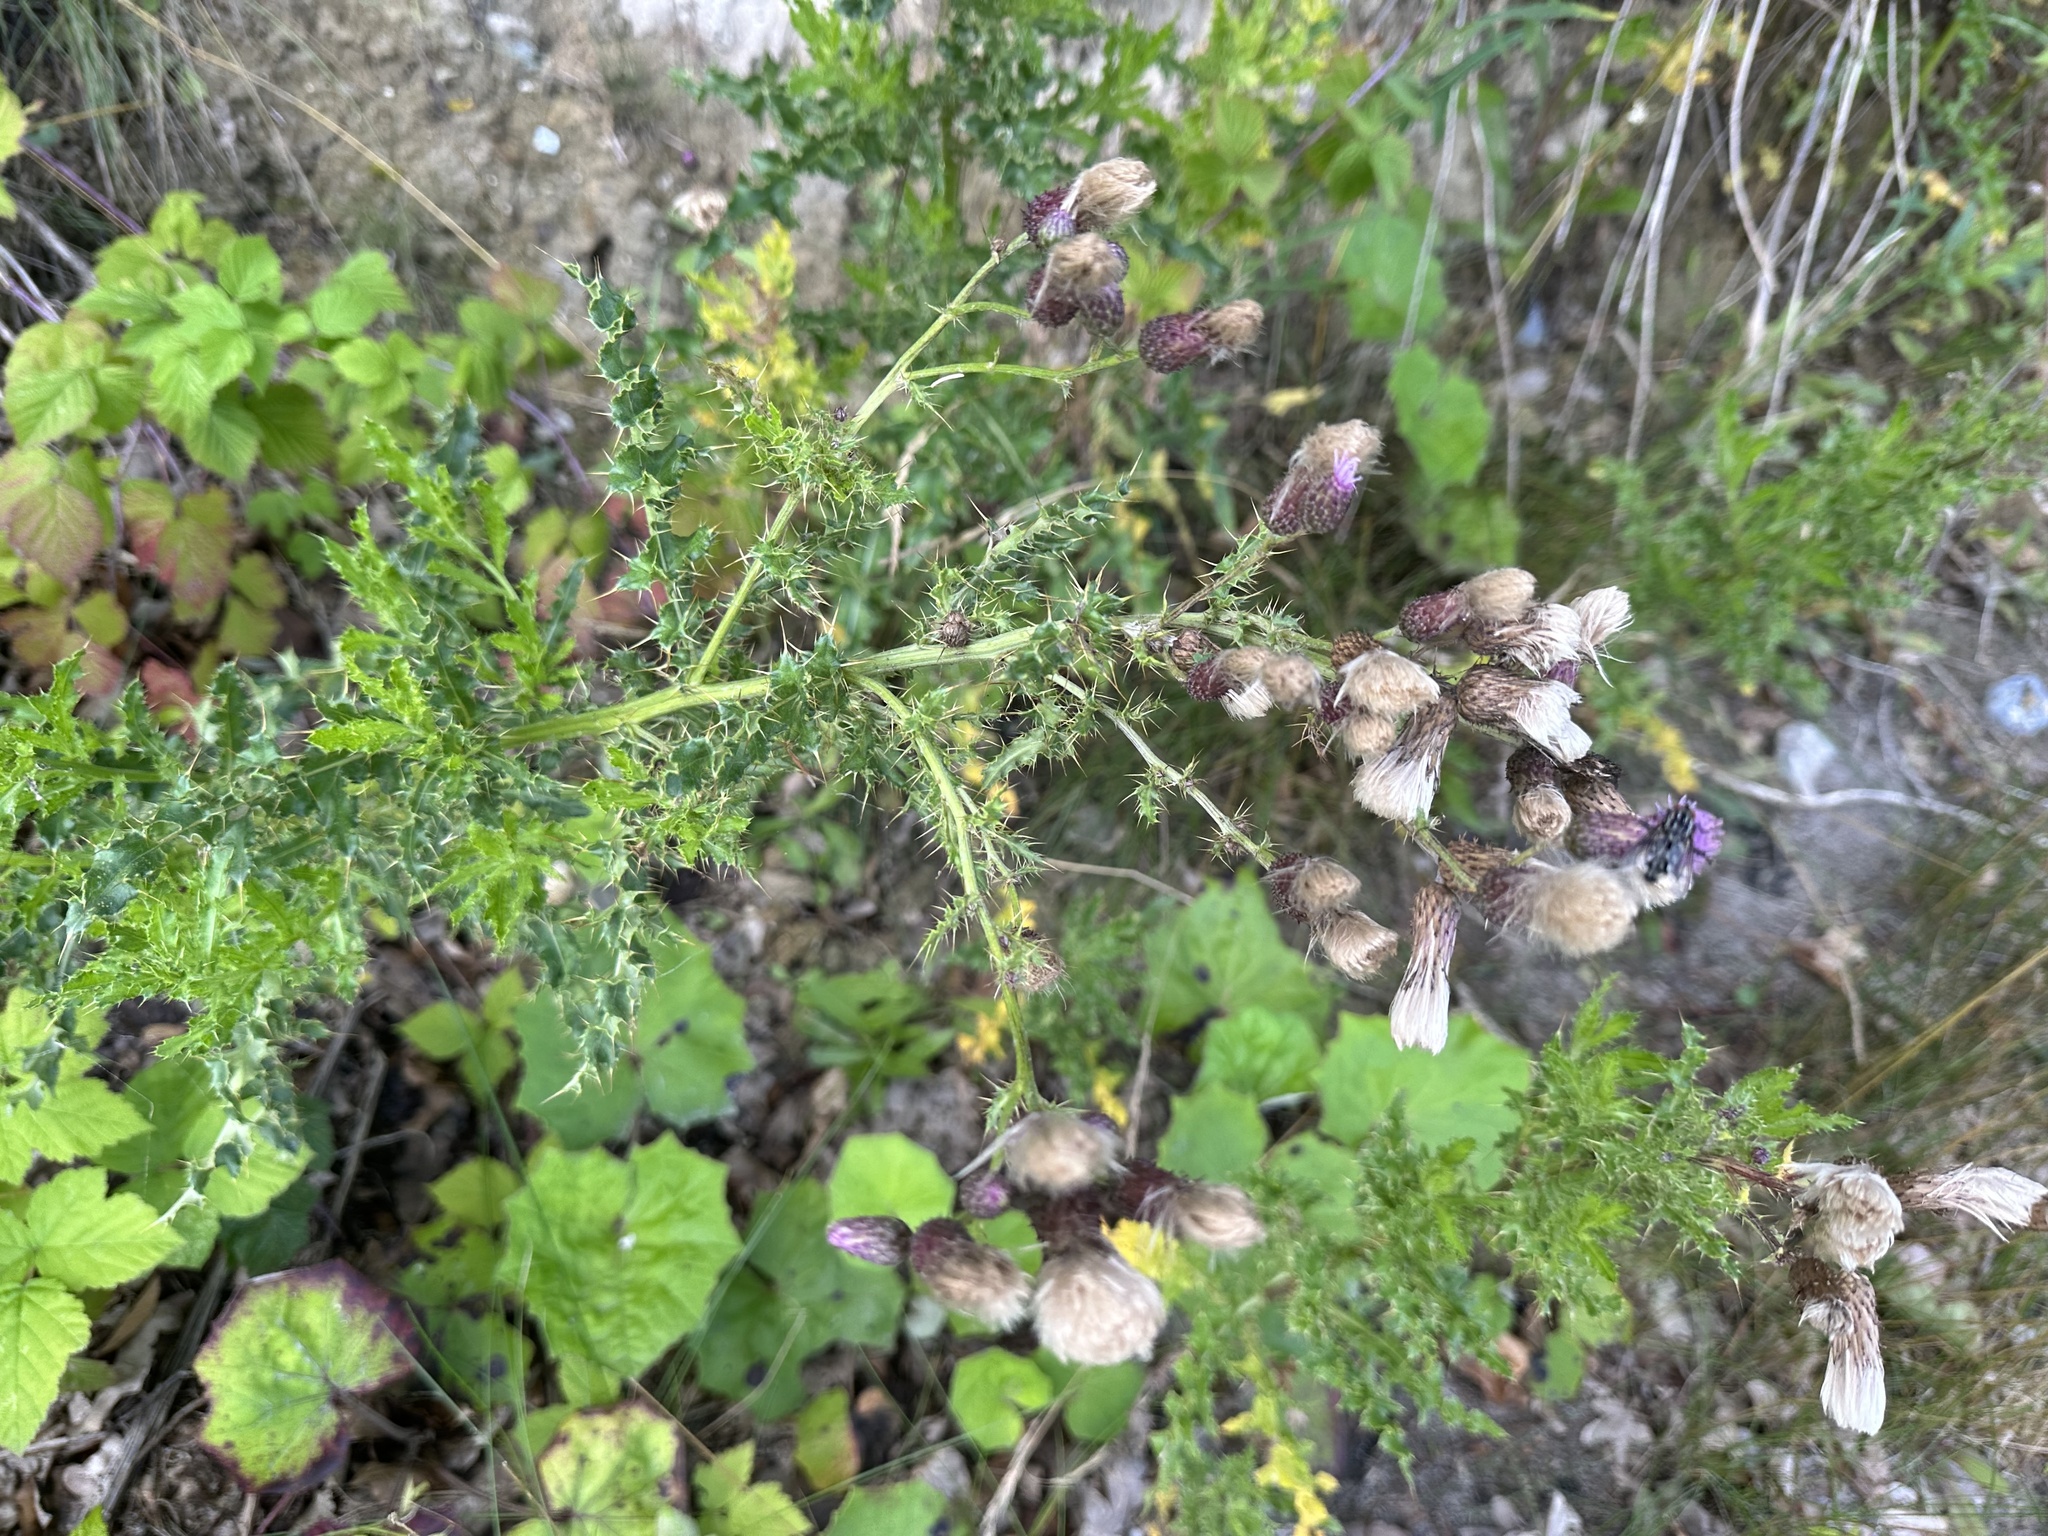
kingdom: Plantae
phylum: Tracheophyta
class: Magnoliopsida
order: Asterales
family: Asteraceae
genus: Cirsium
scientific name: Cirsium arvense
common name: Creeping thistle
